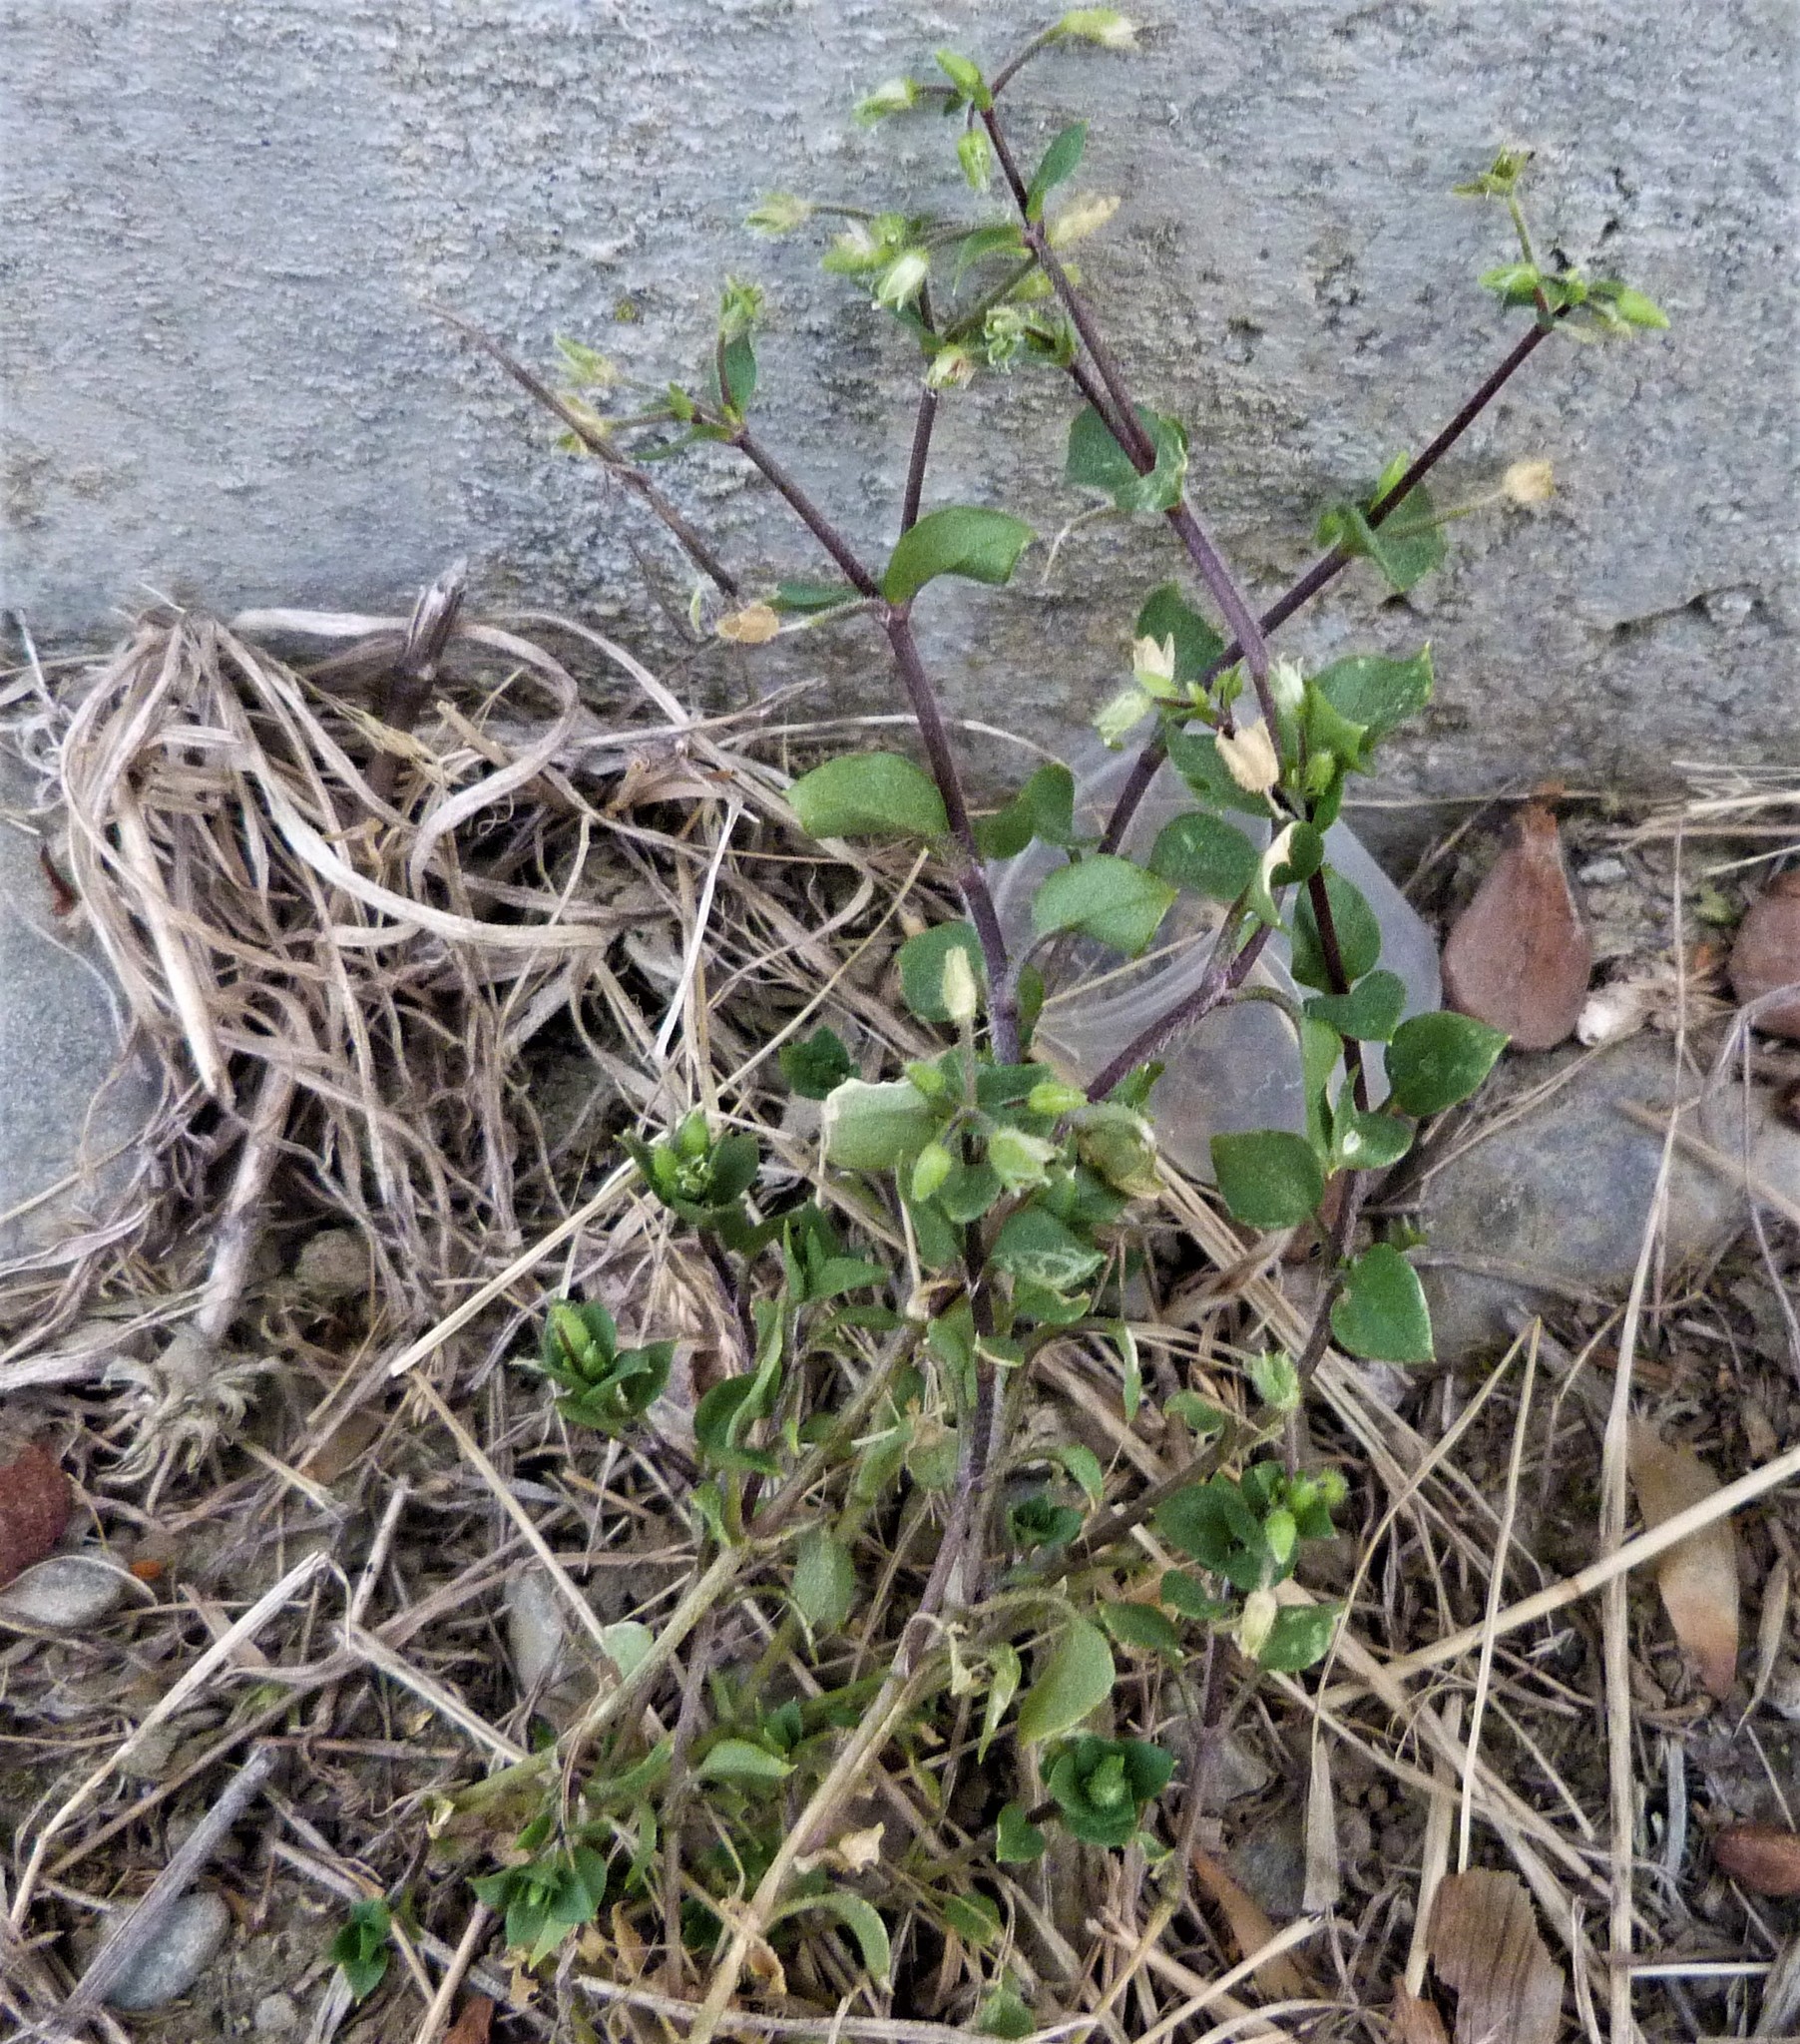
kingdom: Plantae
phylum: Tracheophyta
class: Magnoliopsida
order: Caryophyllales
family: Caryophyllaceae
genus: Stellaria
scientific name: Stellaria media
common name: Common chickweed
